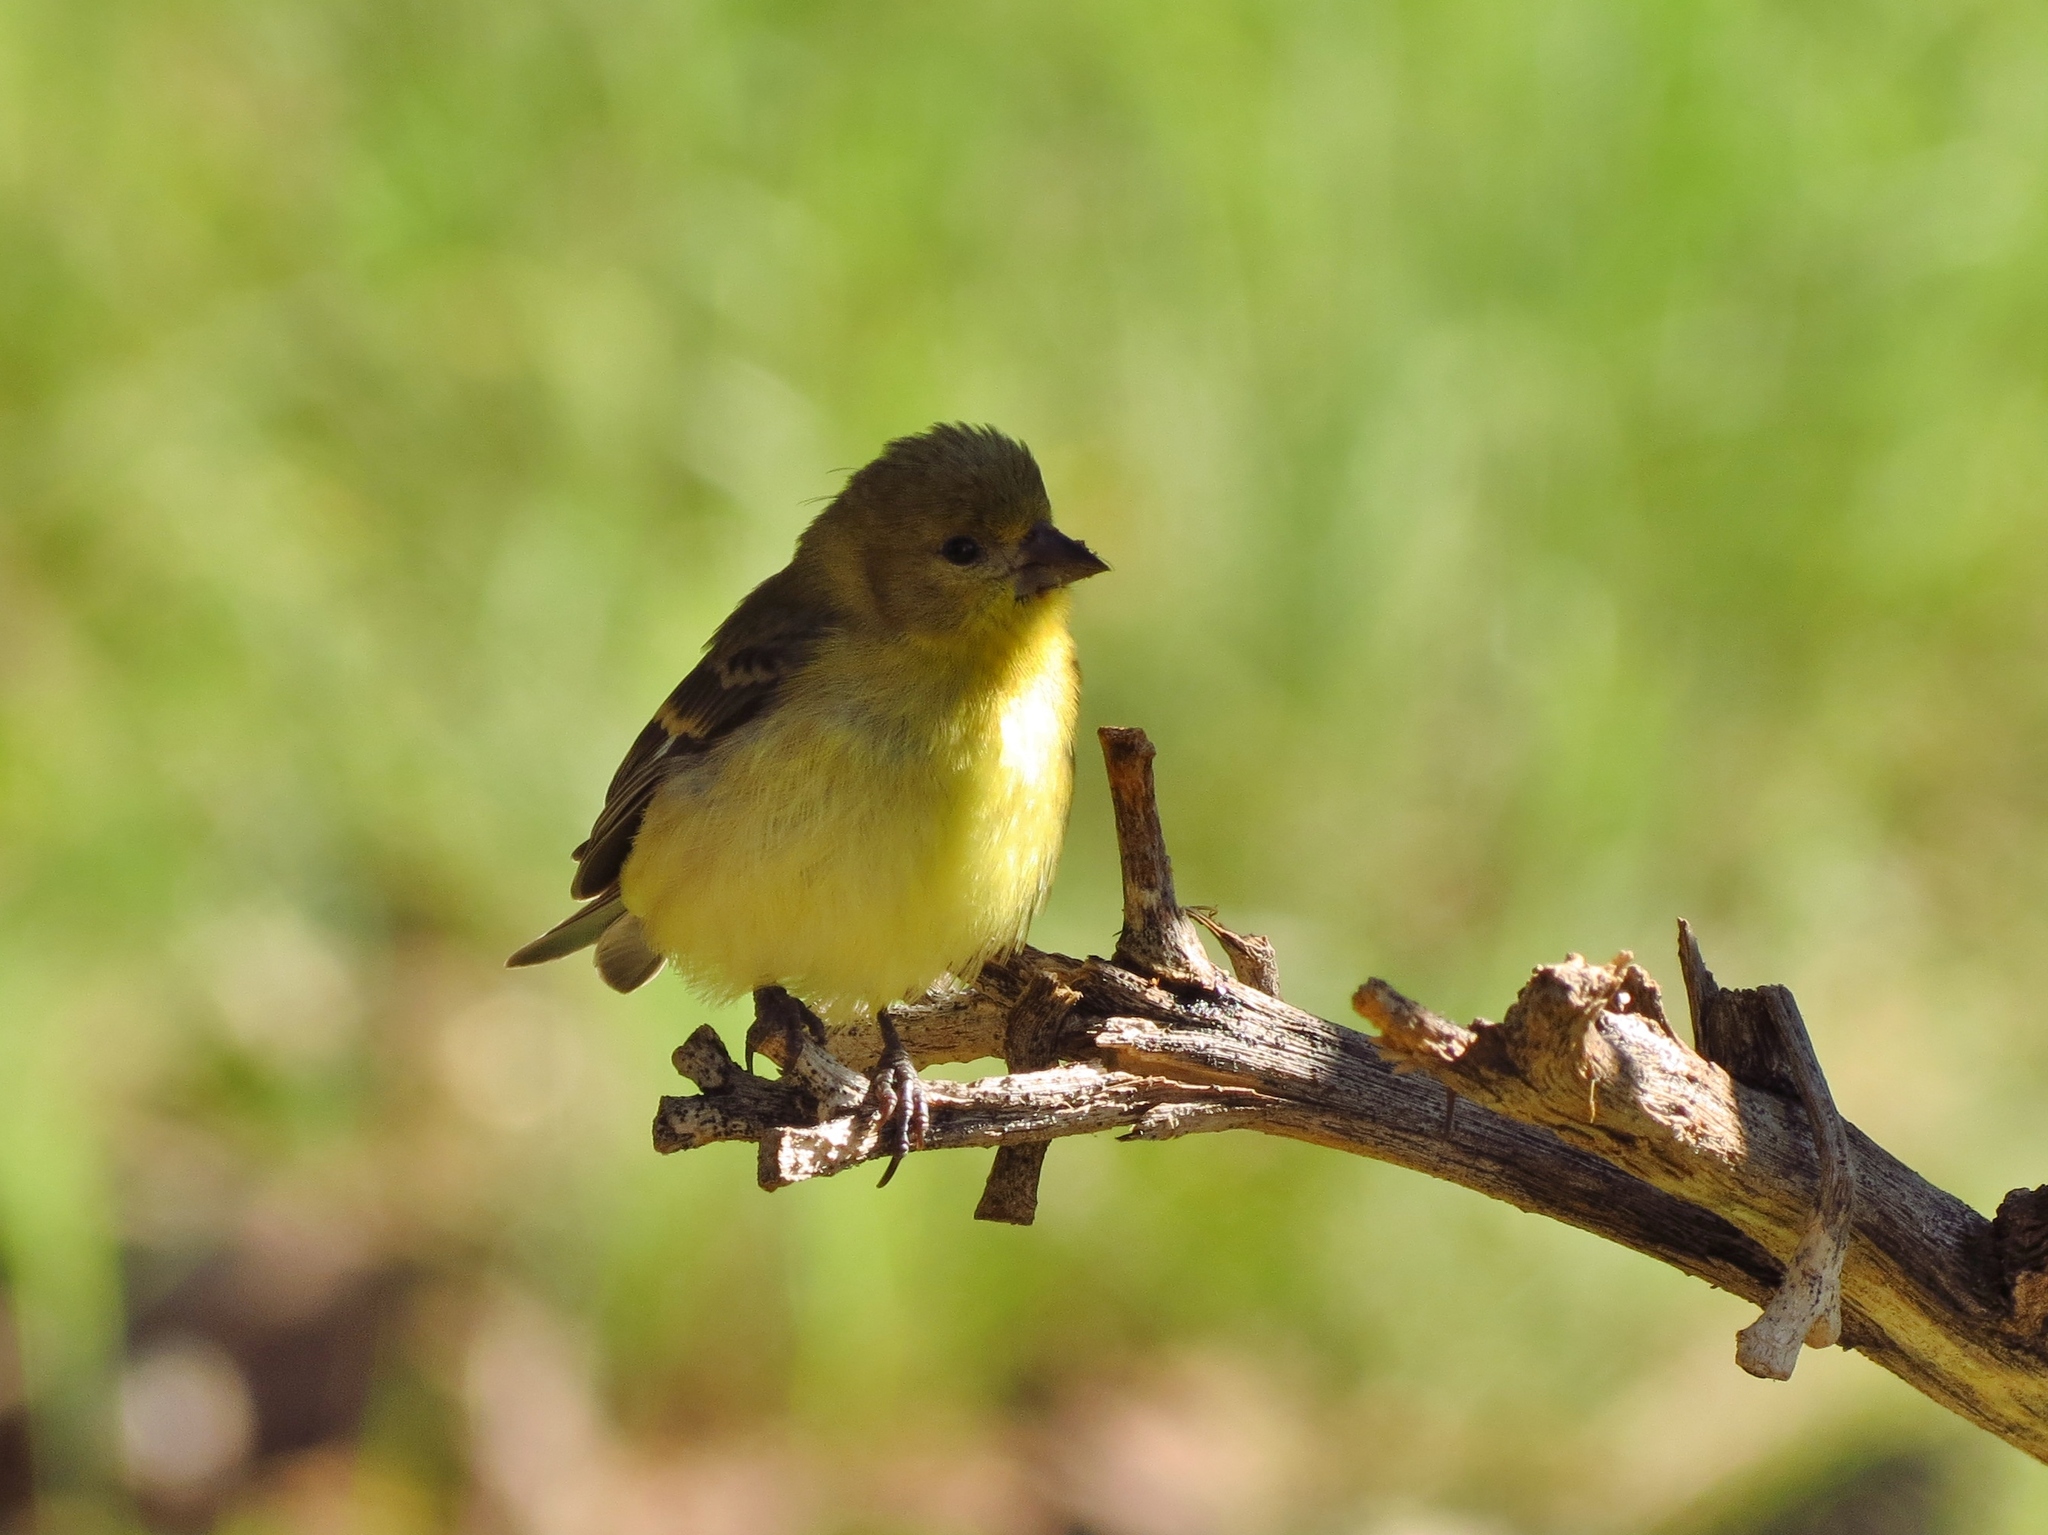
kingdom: Animalia
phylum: Chordata
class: Aves
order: Passeriformes
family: Fringillidae
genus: Spinus
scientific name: Spinus psaltria
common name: Lesser goldfinch
